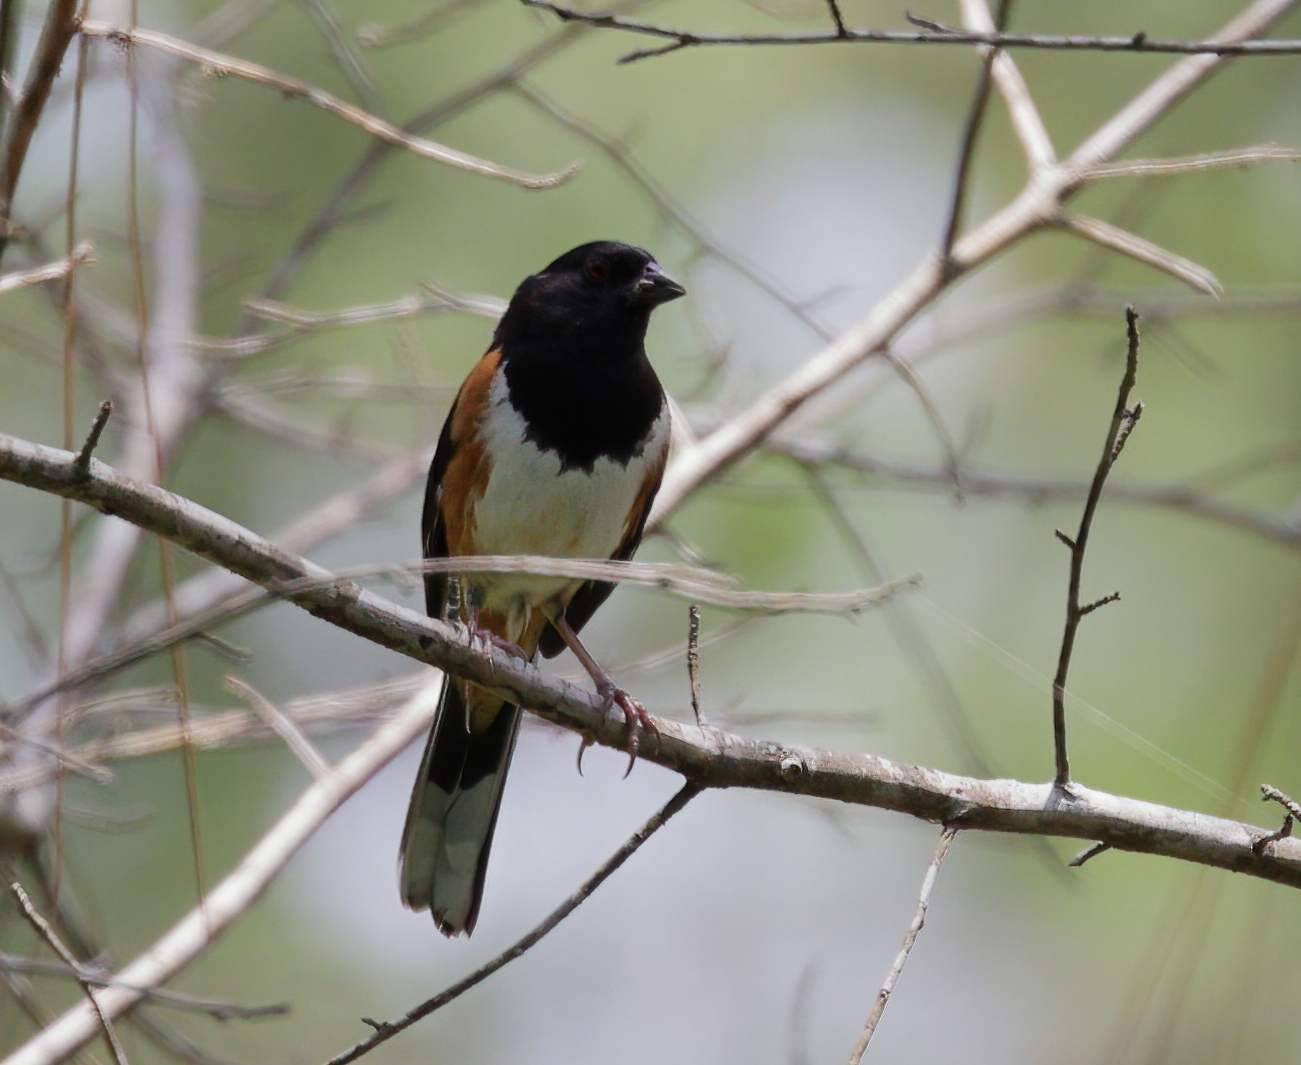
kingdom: Animalia
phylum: Chordata
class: Aves
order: Passeriformes
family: Passerellidae
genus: Pipilo
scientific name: Pipilo erythrophthalmus
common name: Eastern towhee
